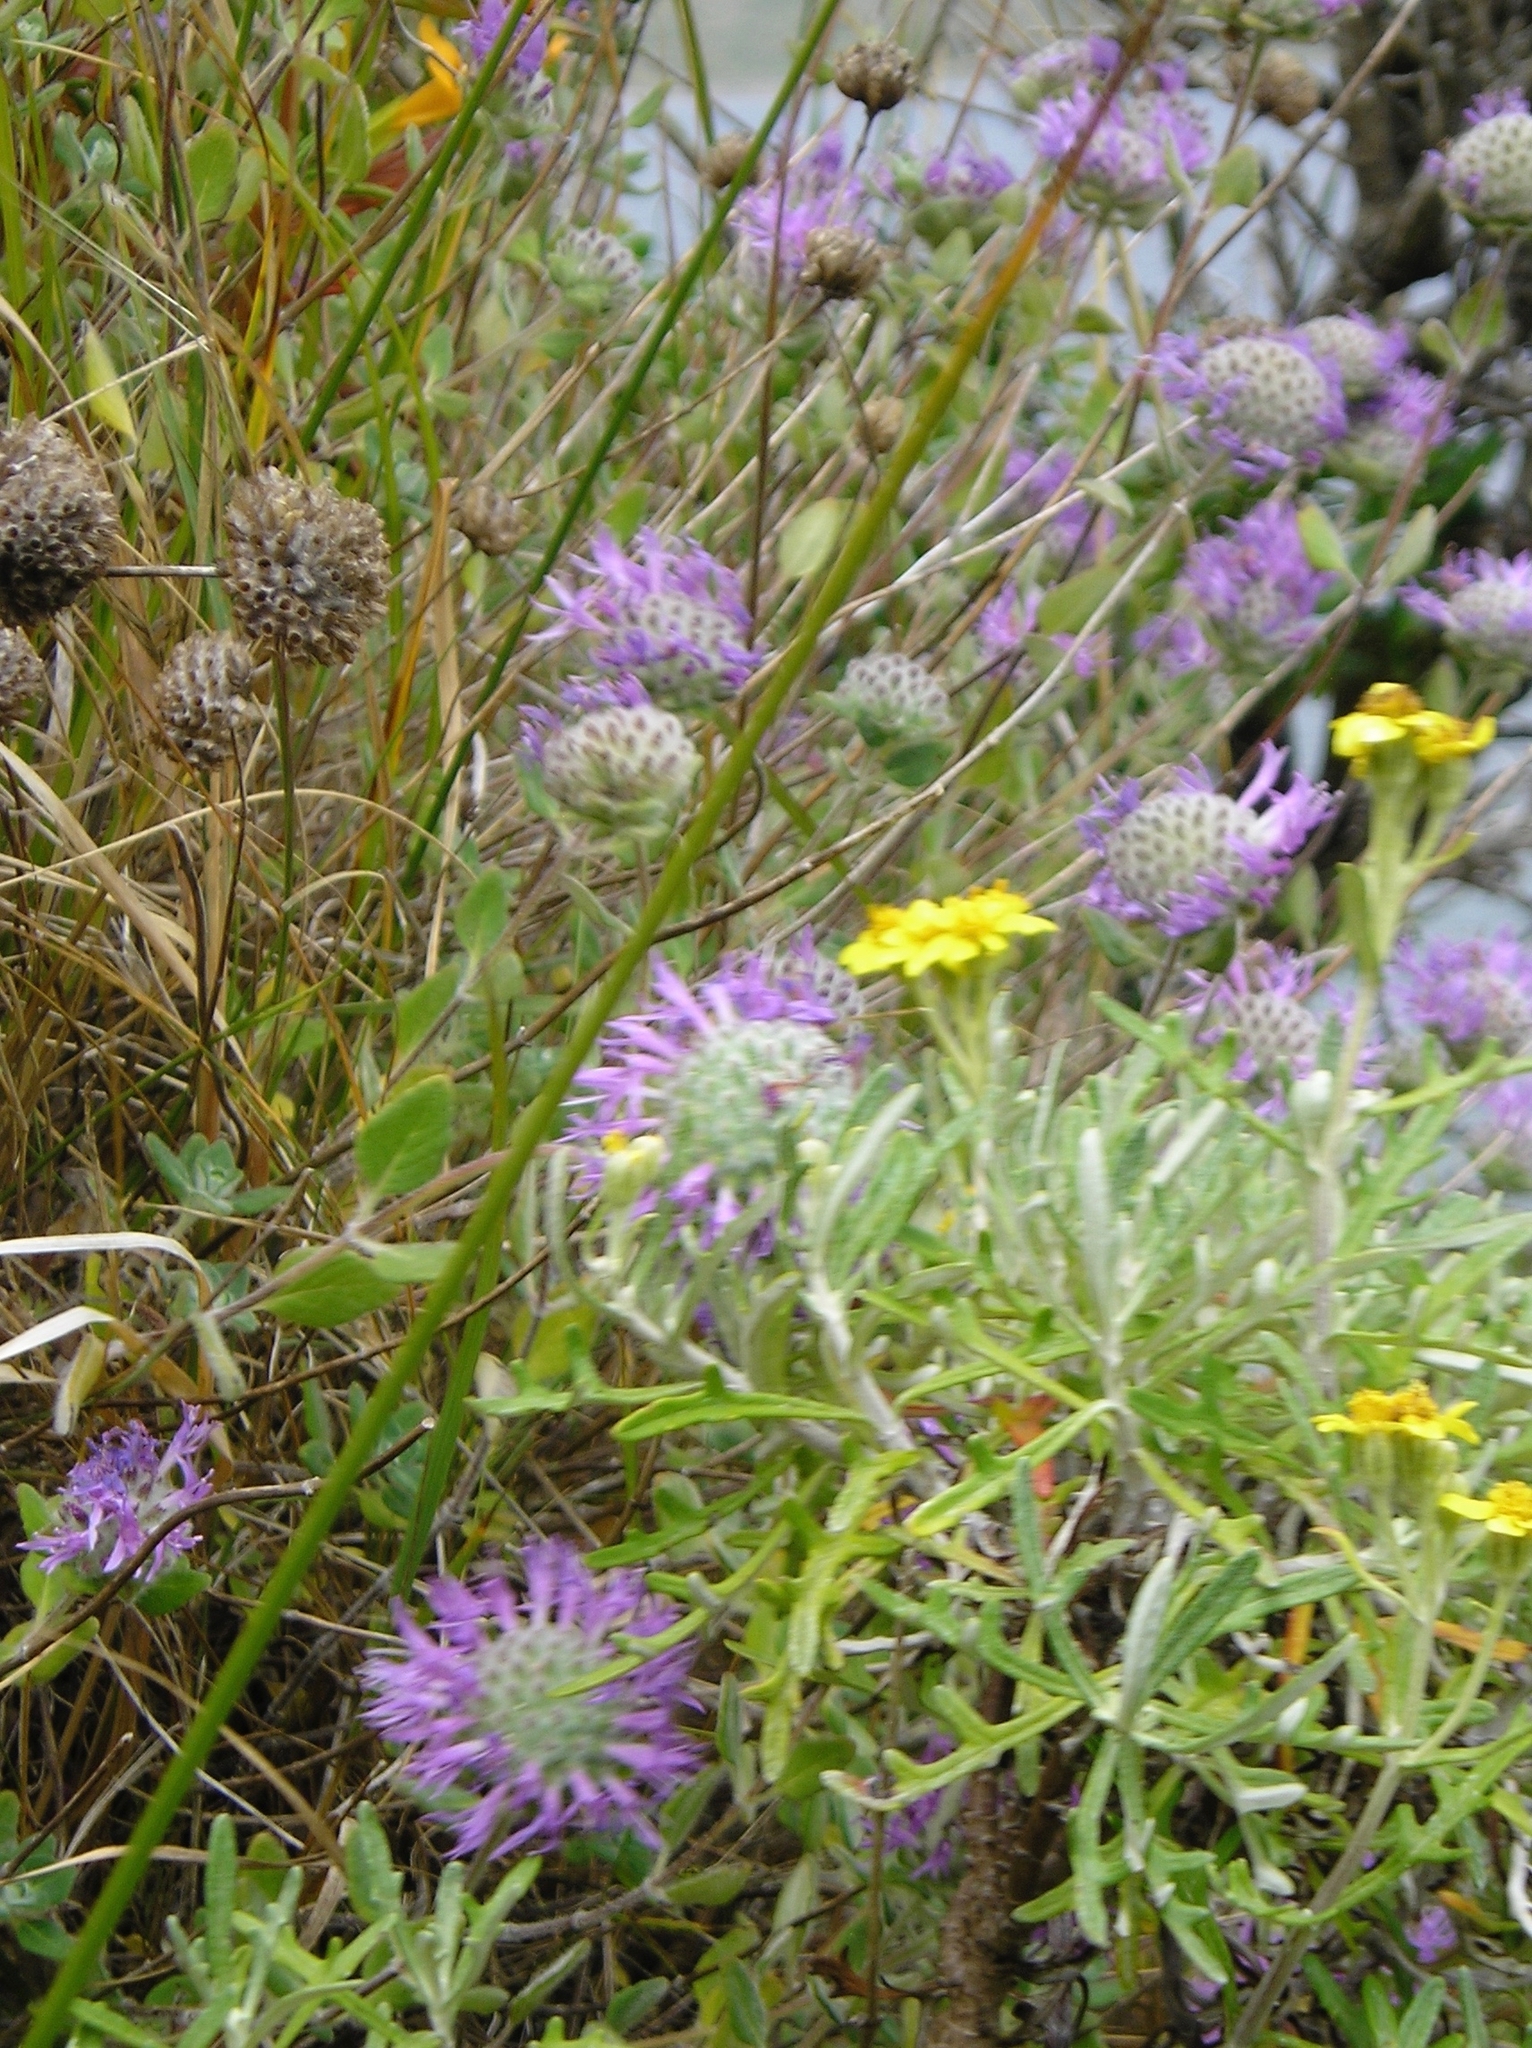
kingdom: Plantae
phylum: Tracheophyta
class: Magnoliopsida
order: Lamiales
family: Lamiaceae
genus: Monardella
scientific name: Monardella odoratissima
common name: Pacific monardella
